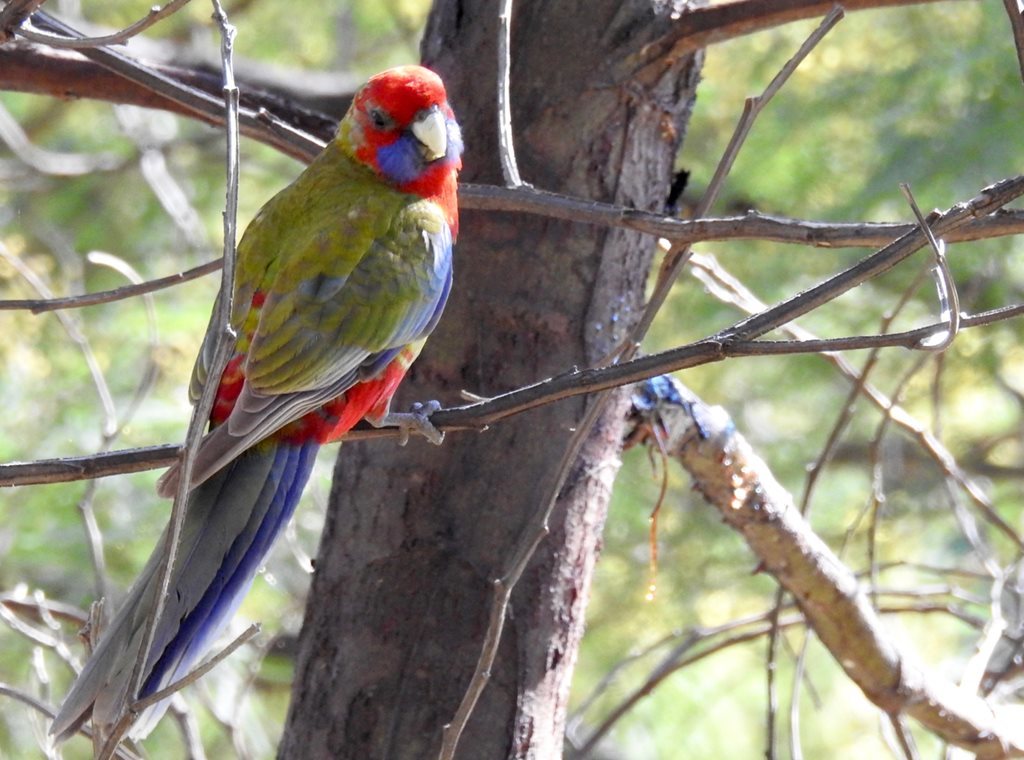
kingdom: Animalia
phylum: Chordata
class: Aves
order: Psittaciformes
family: Psittacidae
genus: Platycercus
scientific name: Platycercus elegans
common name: Crimson rosella
